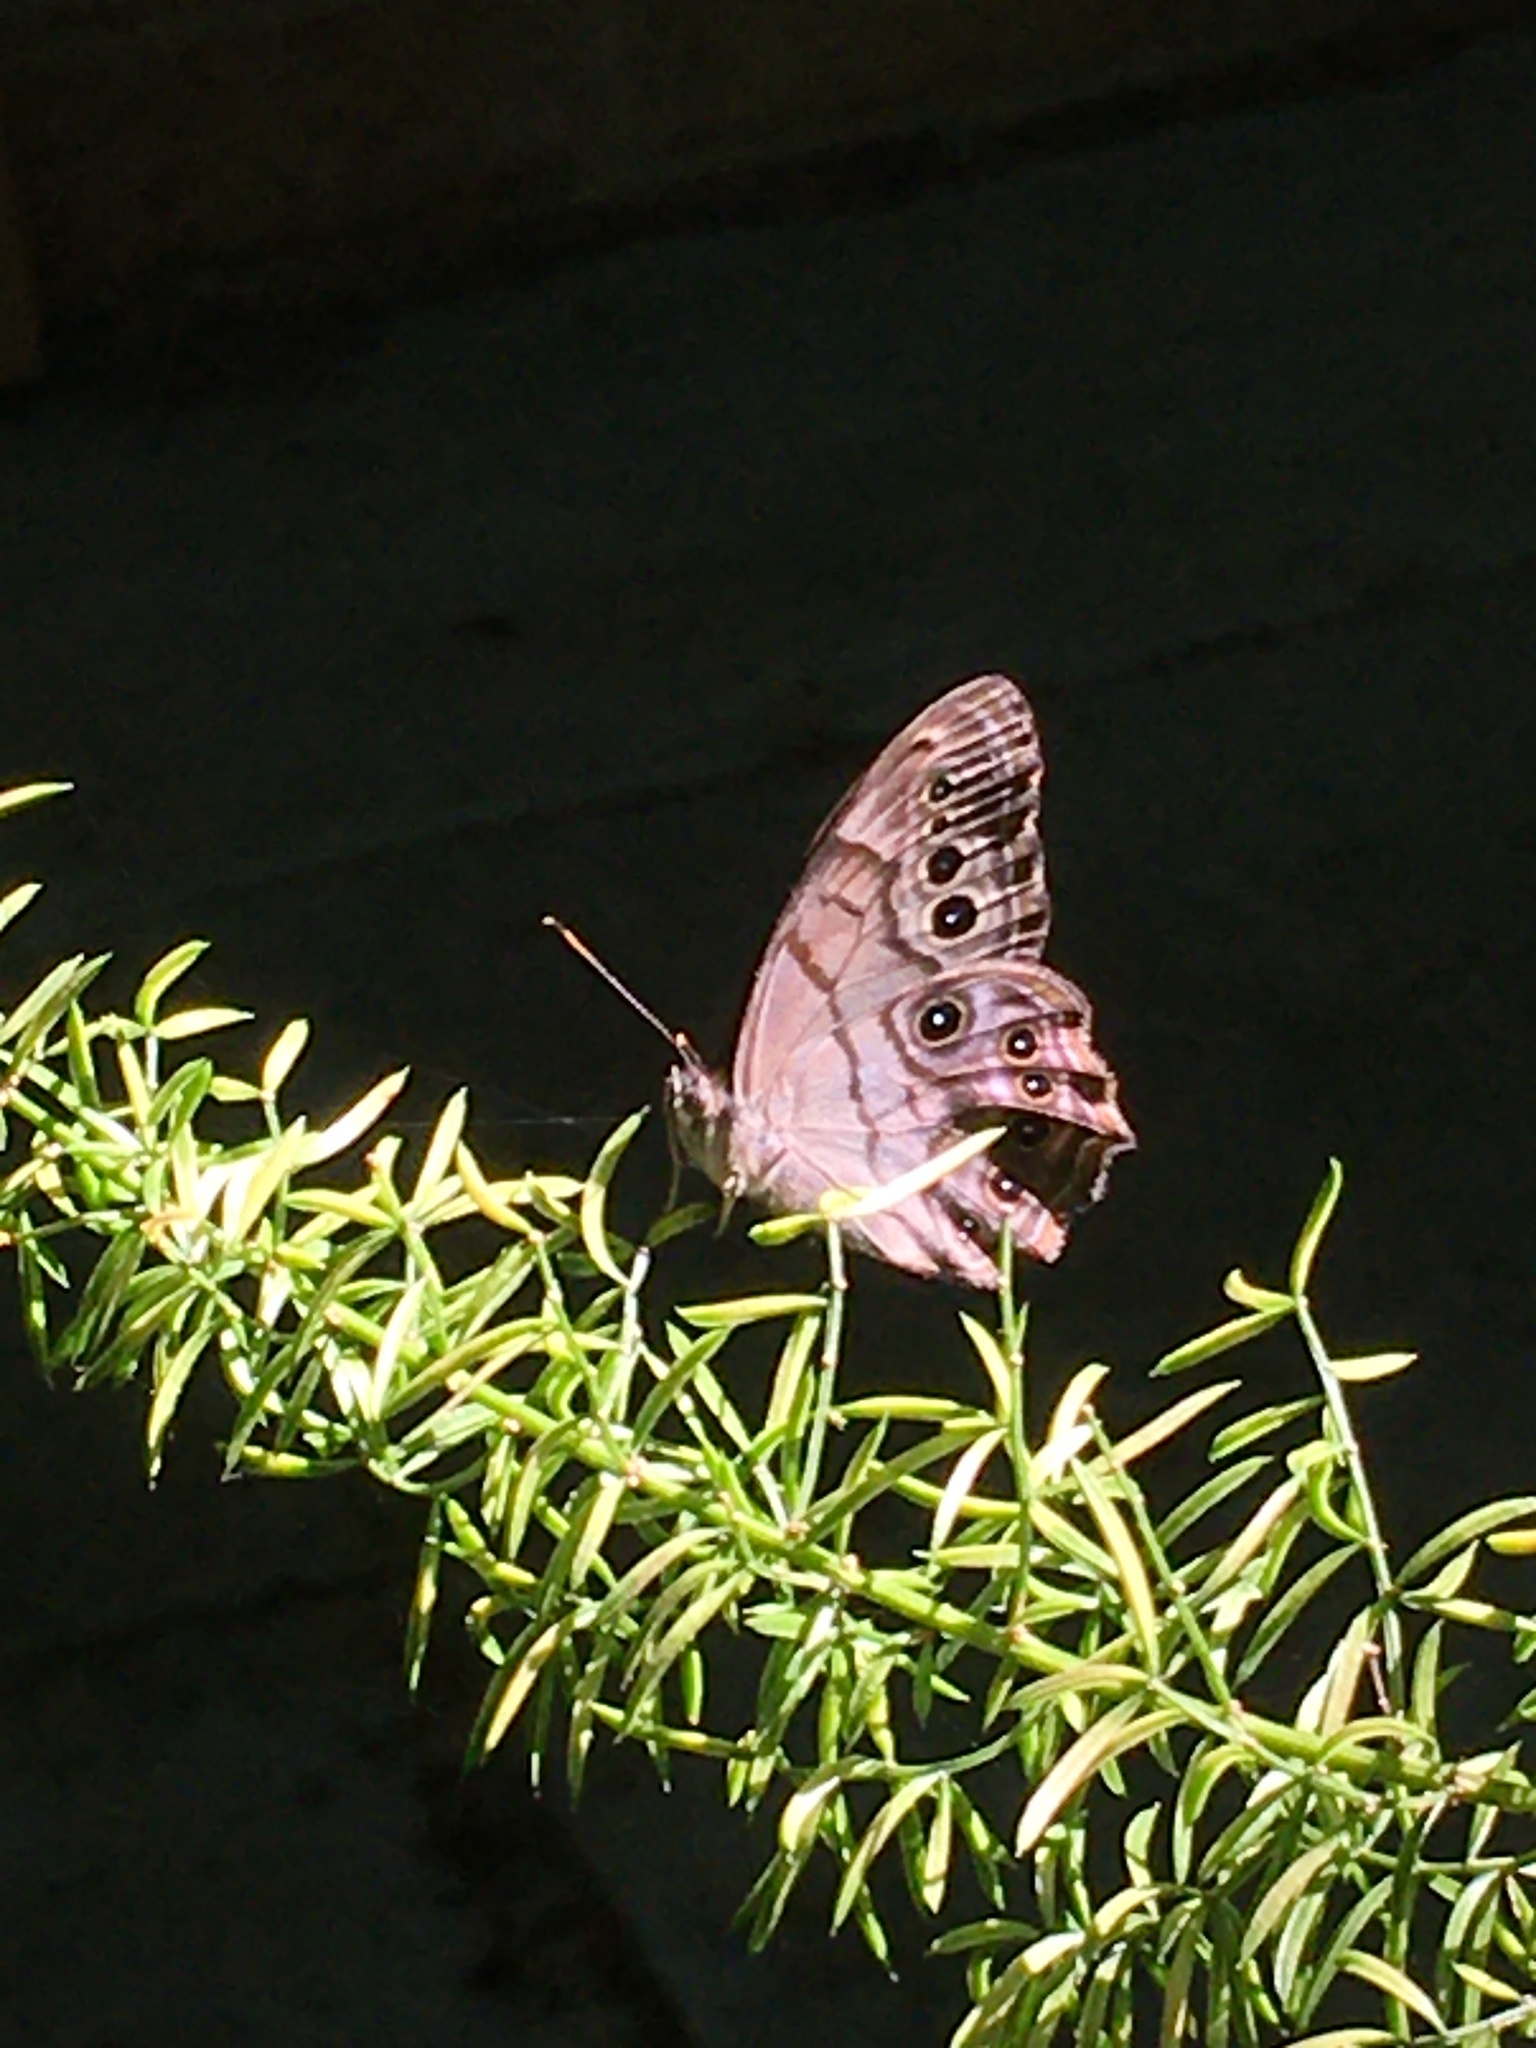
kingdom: Animalia
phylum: Arthropoda
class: Insecta
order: Lepidoptera
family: Nymphalidae
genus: Lethe
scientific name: Lethe anthedon
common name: Northern pearly-eye
